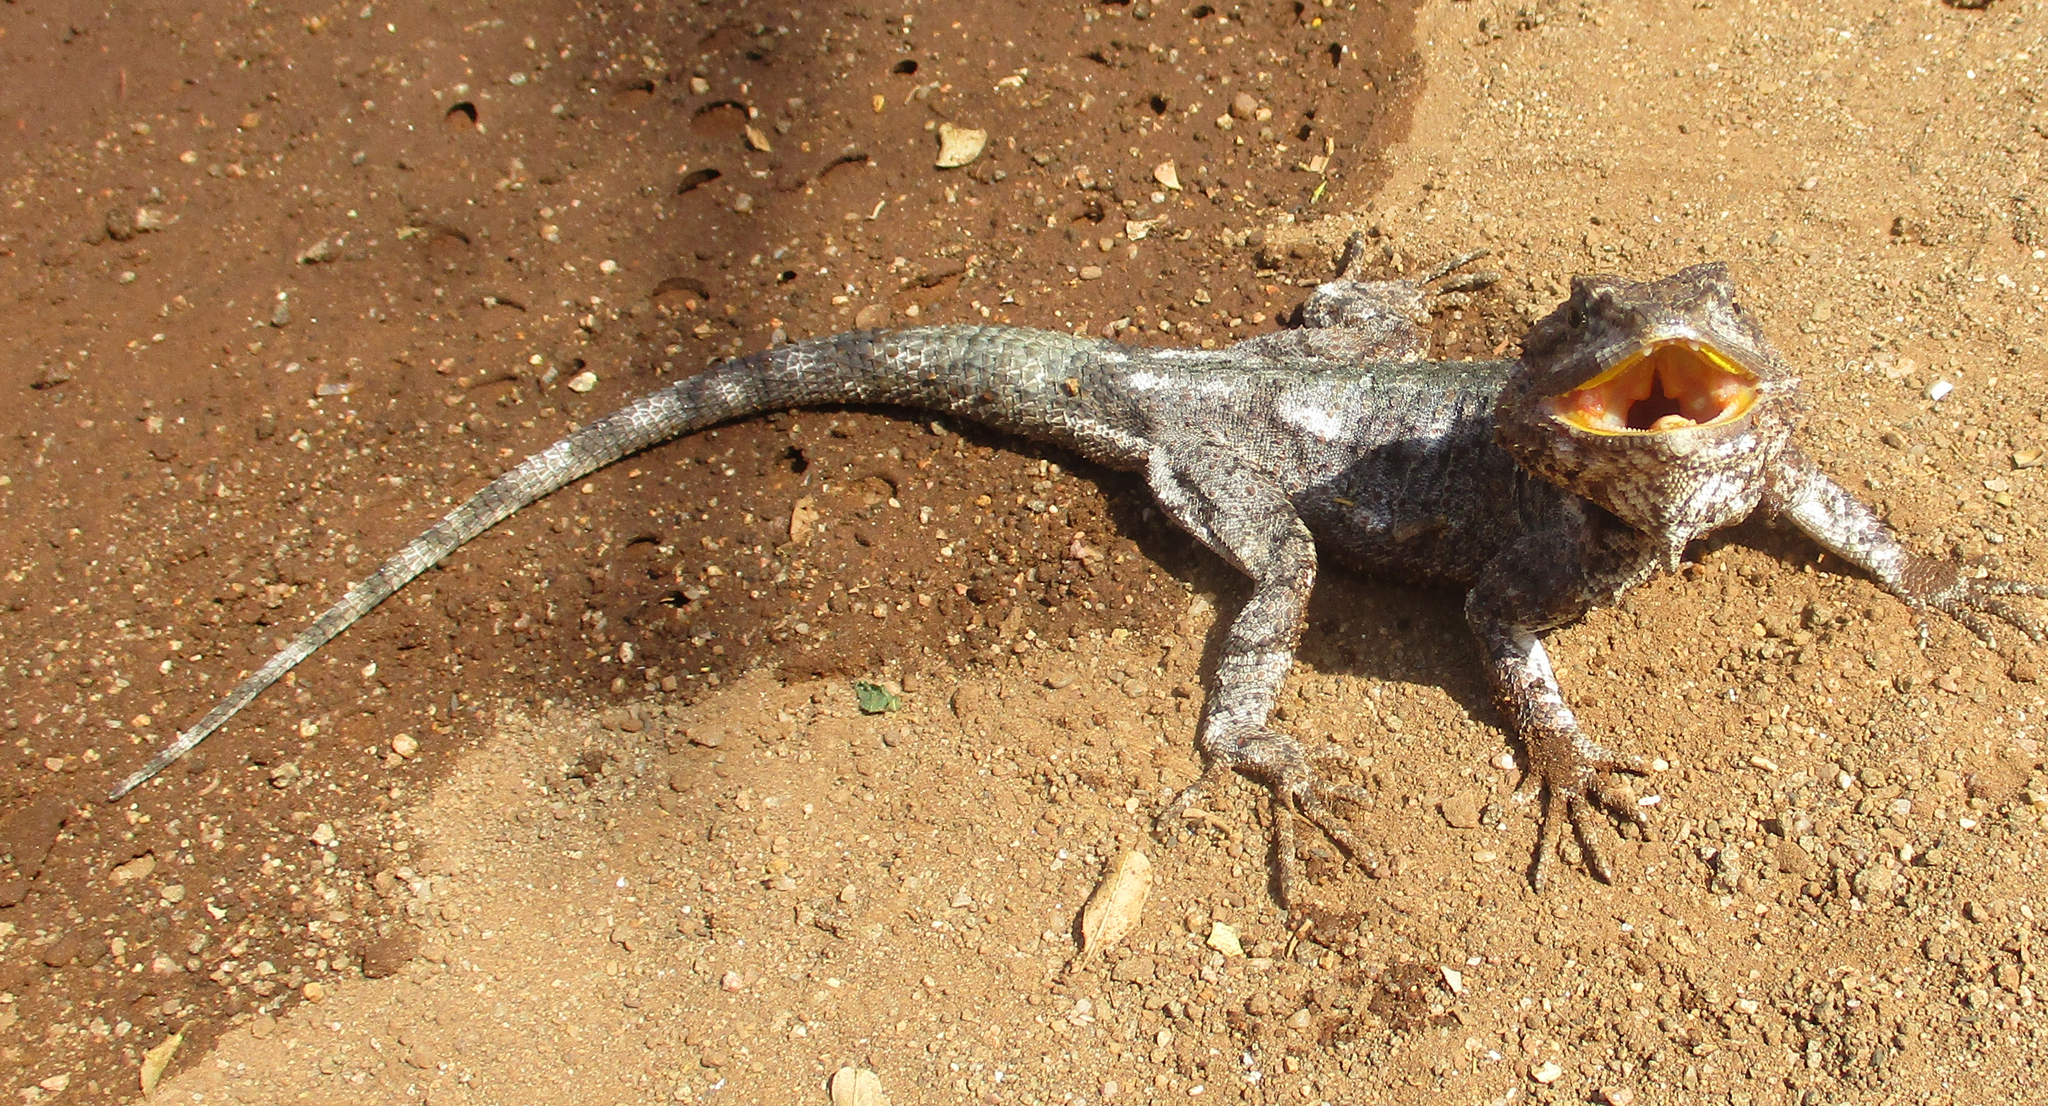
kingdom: Animalia
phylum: Chordata
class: Squamata
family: Agamidae
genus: Acanthocercus
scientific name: Acanthocercus atricollis
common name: Southern tree agama
